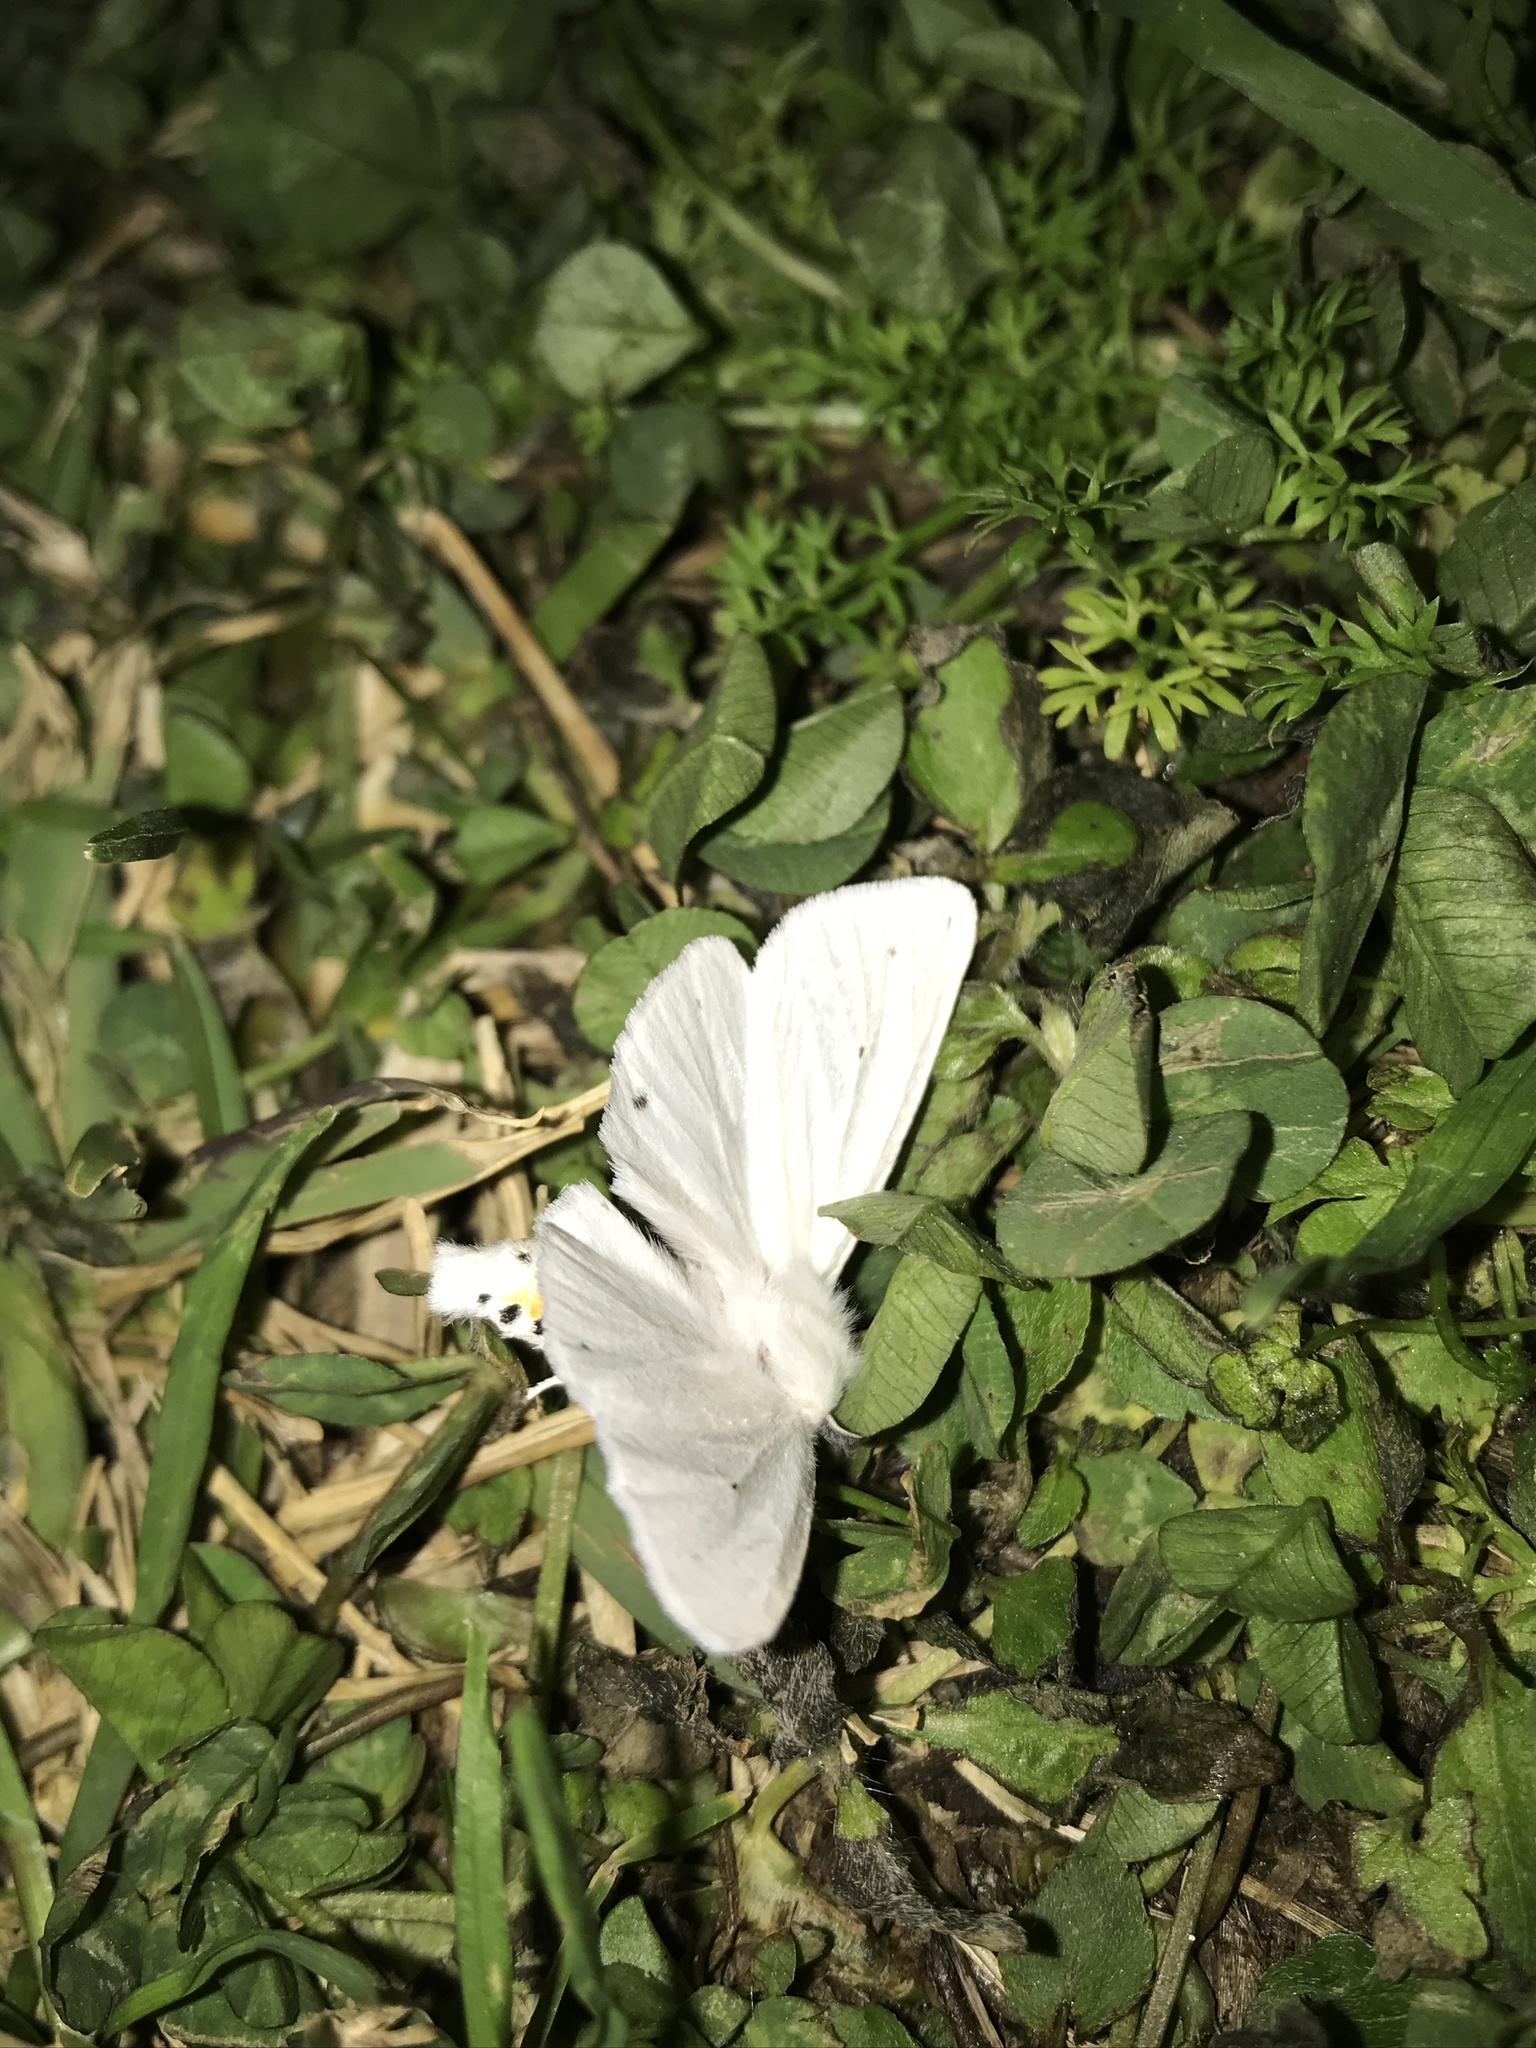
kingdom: Animalia
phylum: Arthropoda
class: Insecta
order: Lepidoptera
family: Erebidae
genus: Spilosoma
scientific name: Spilosoma virginica
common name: Virginia tiger moth
